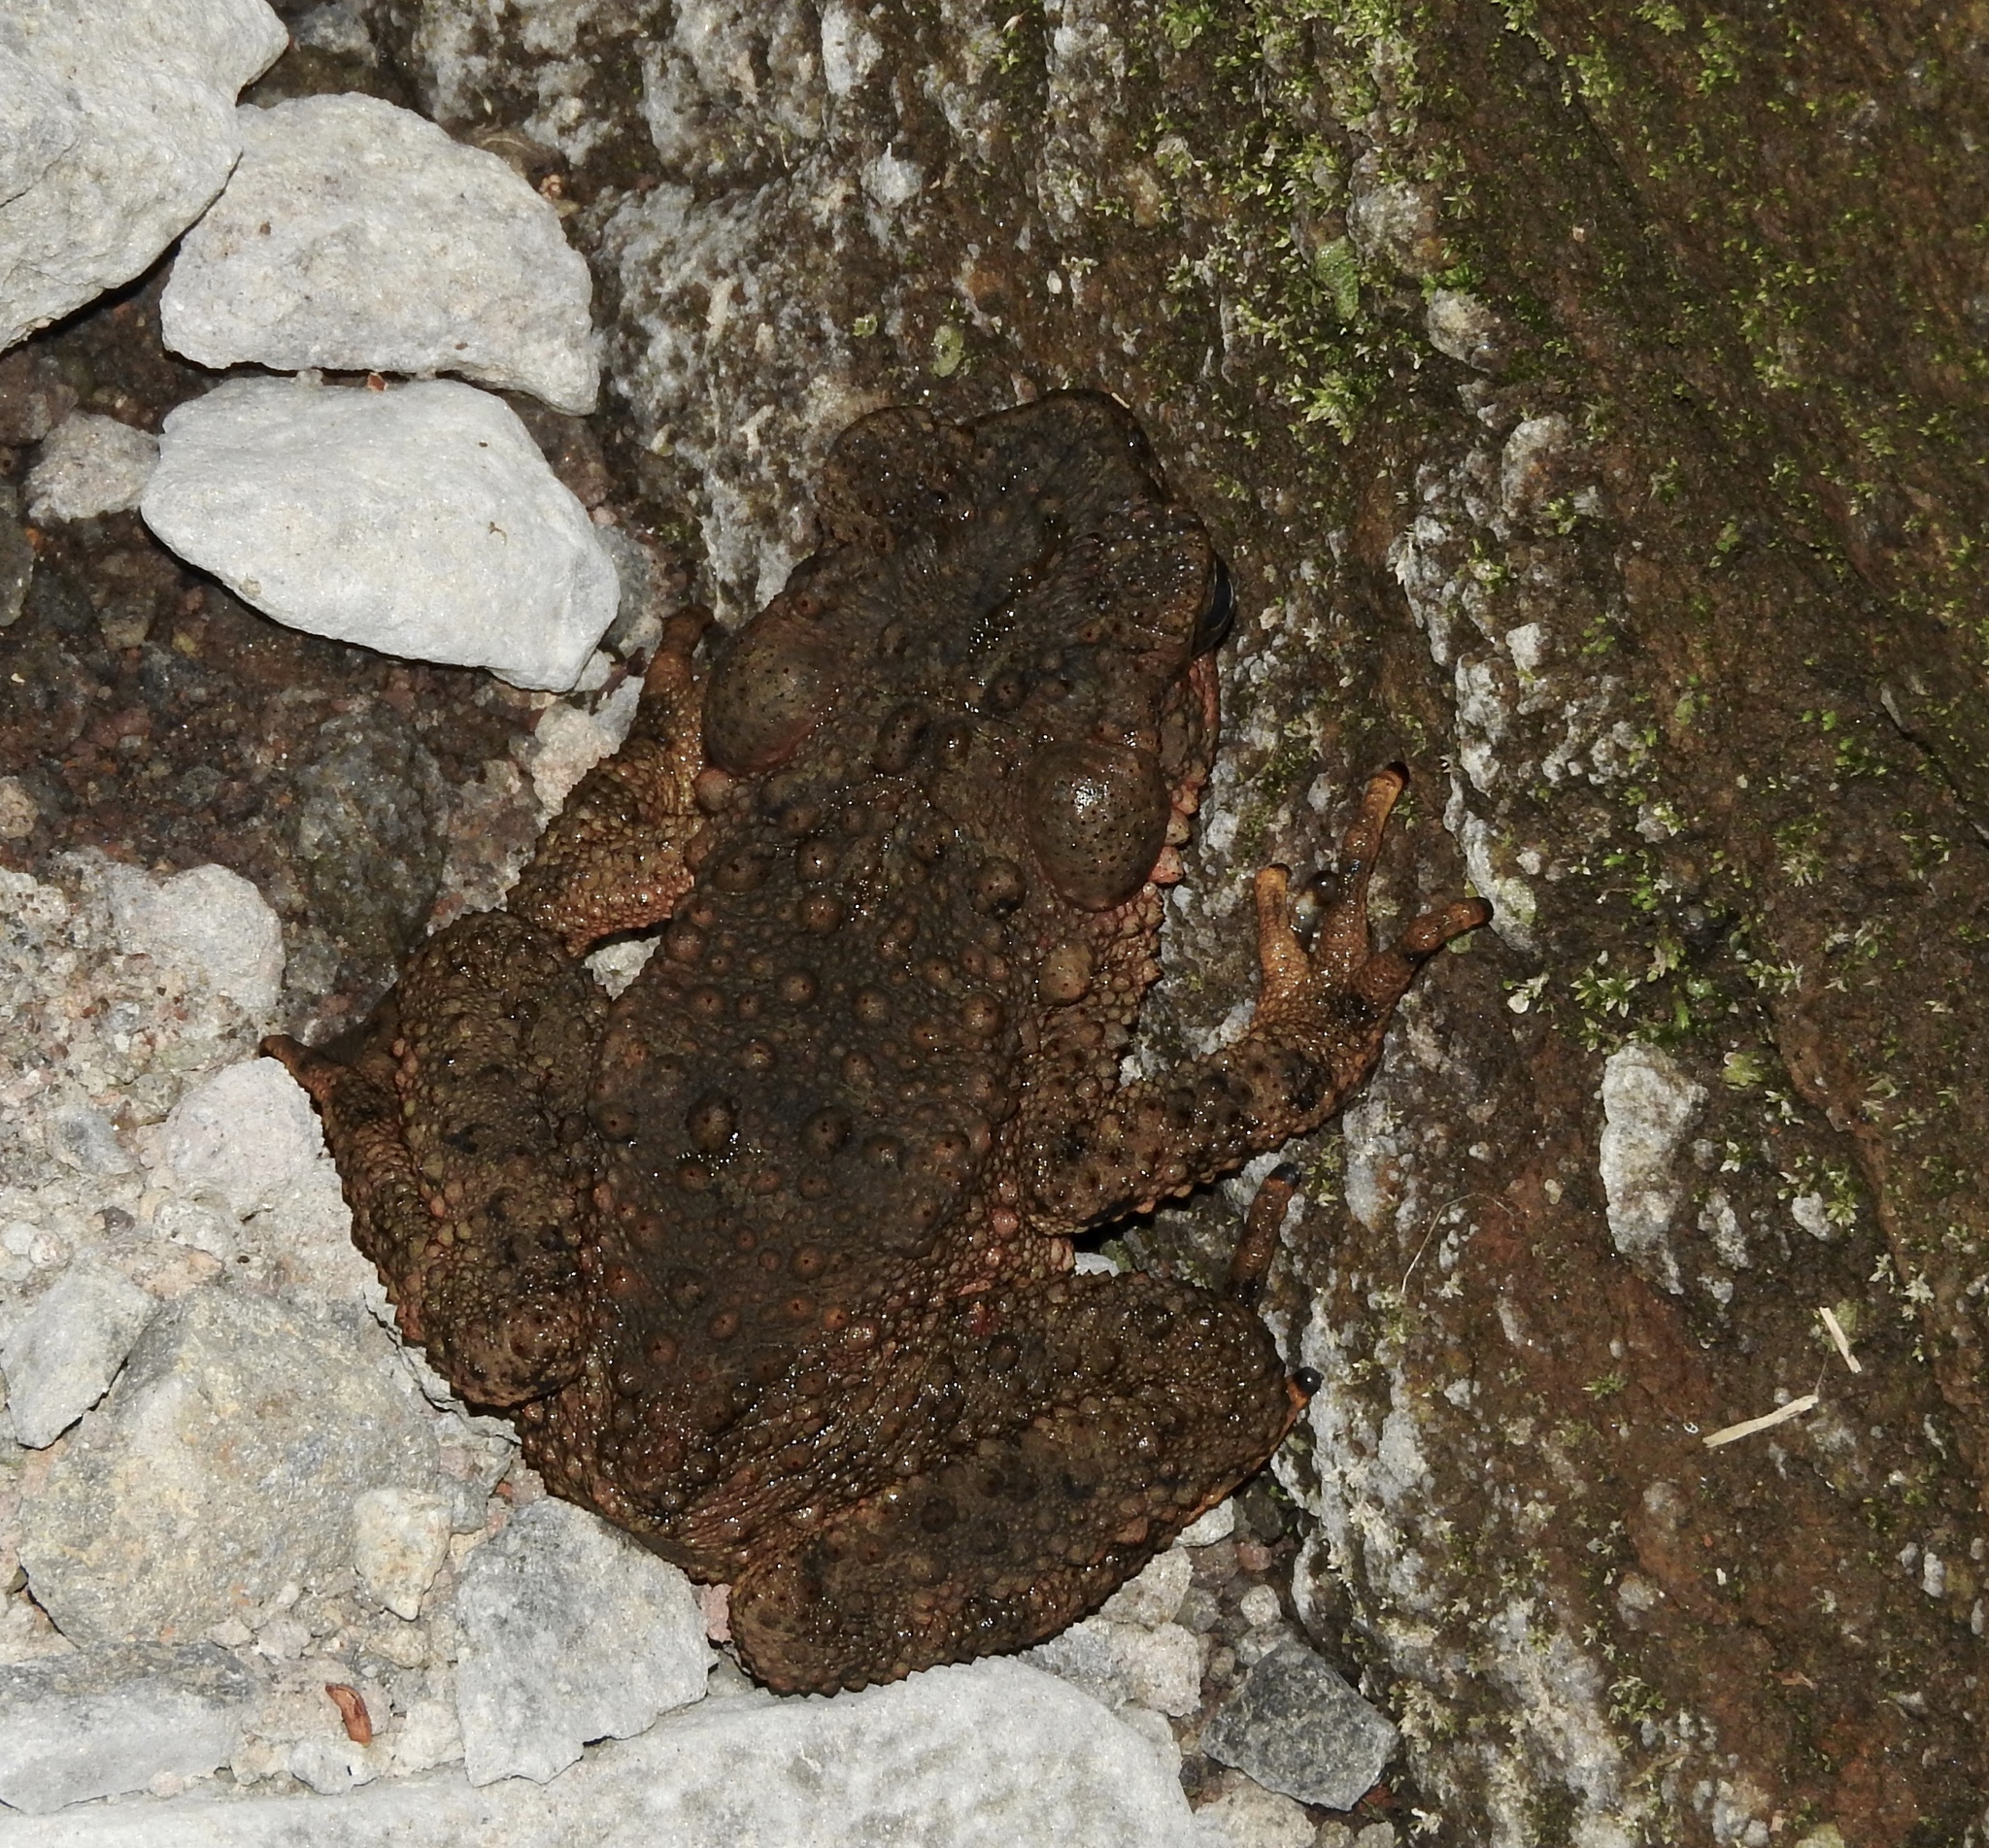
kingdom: Animalia
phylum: Chordata
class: Amphibia
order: Anura
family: Bufonidae
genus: Phrynoidis
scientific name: Phrynoidis asper
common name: Asian giant toad
